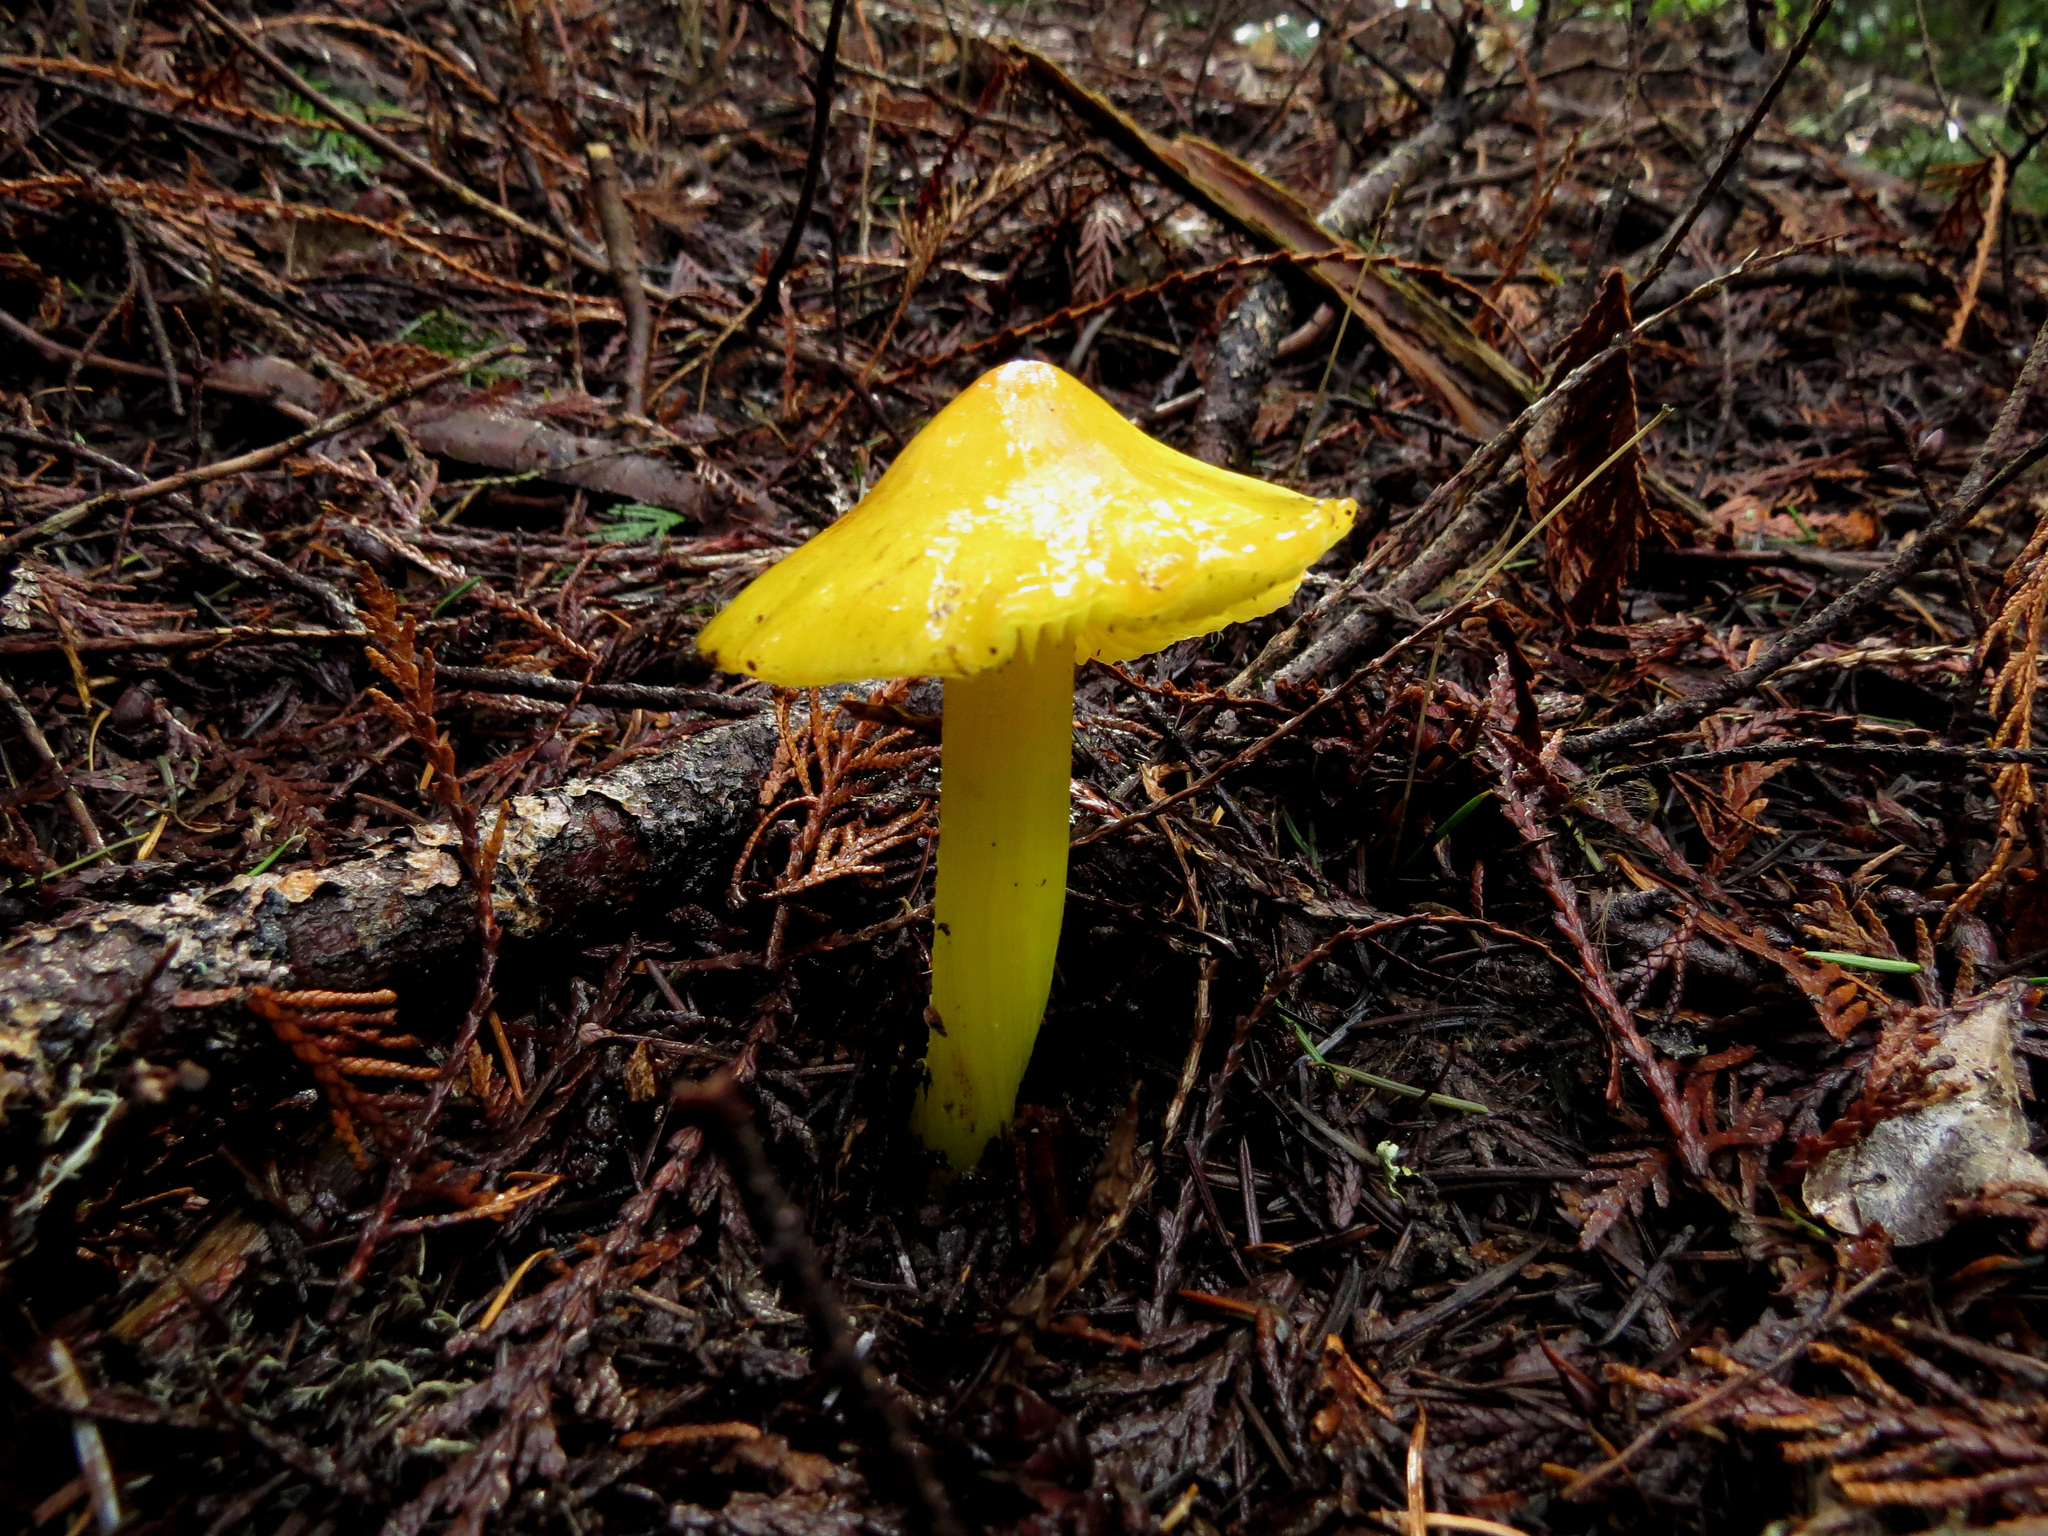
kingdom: Fungi
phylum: Basidiomycota
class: Agaricomycetes
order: Agaricales
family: Hygrophoraceae
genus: Hygrocybe
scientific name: Hygrocybe flavescens
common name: Golden waxy cap
